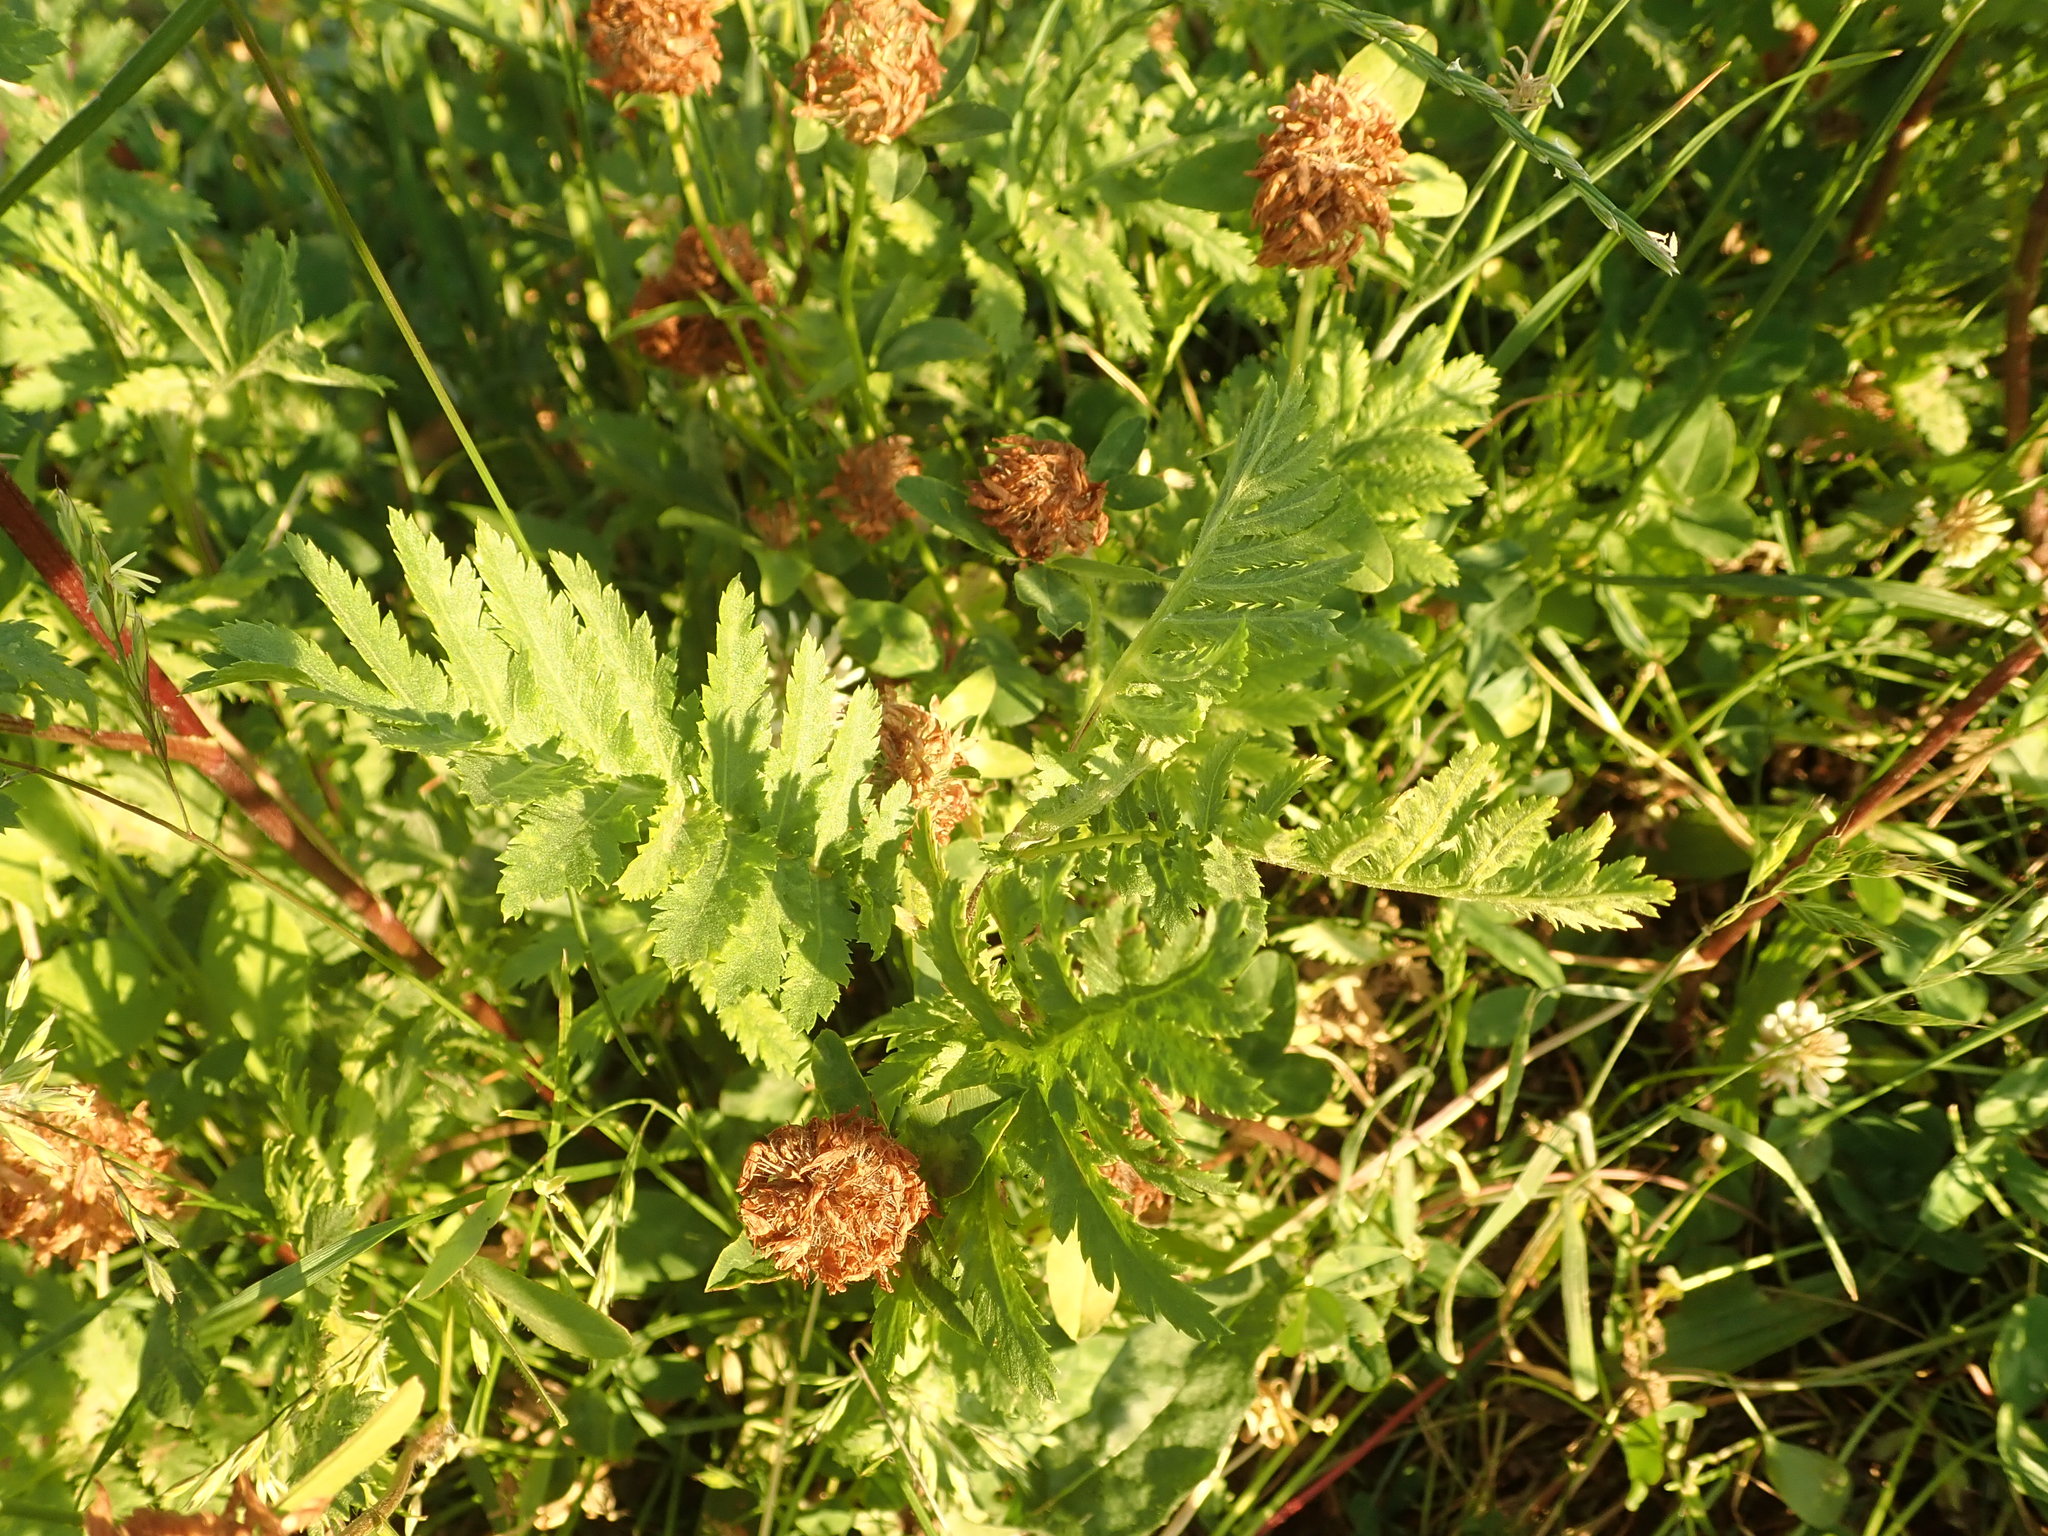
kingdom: Plantae
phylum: Tracheophyta
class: Magnoliopsida
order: Asterales
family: Asteraceae
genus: Tanacetum
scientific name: Tanacetum vulgare
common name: Common tansy
